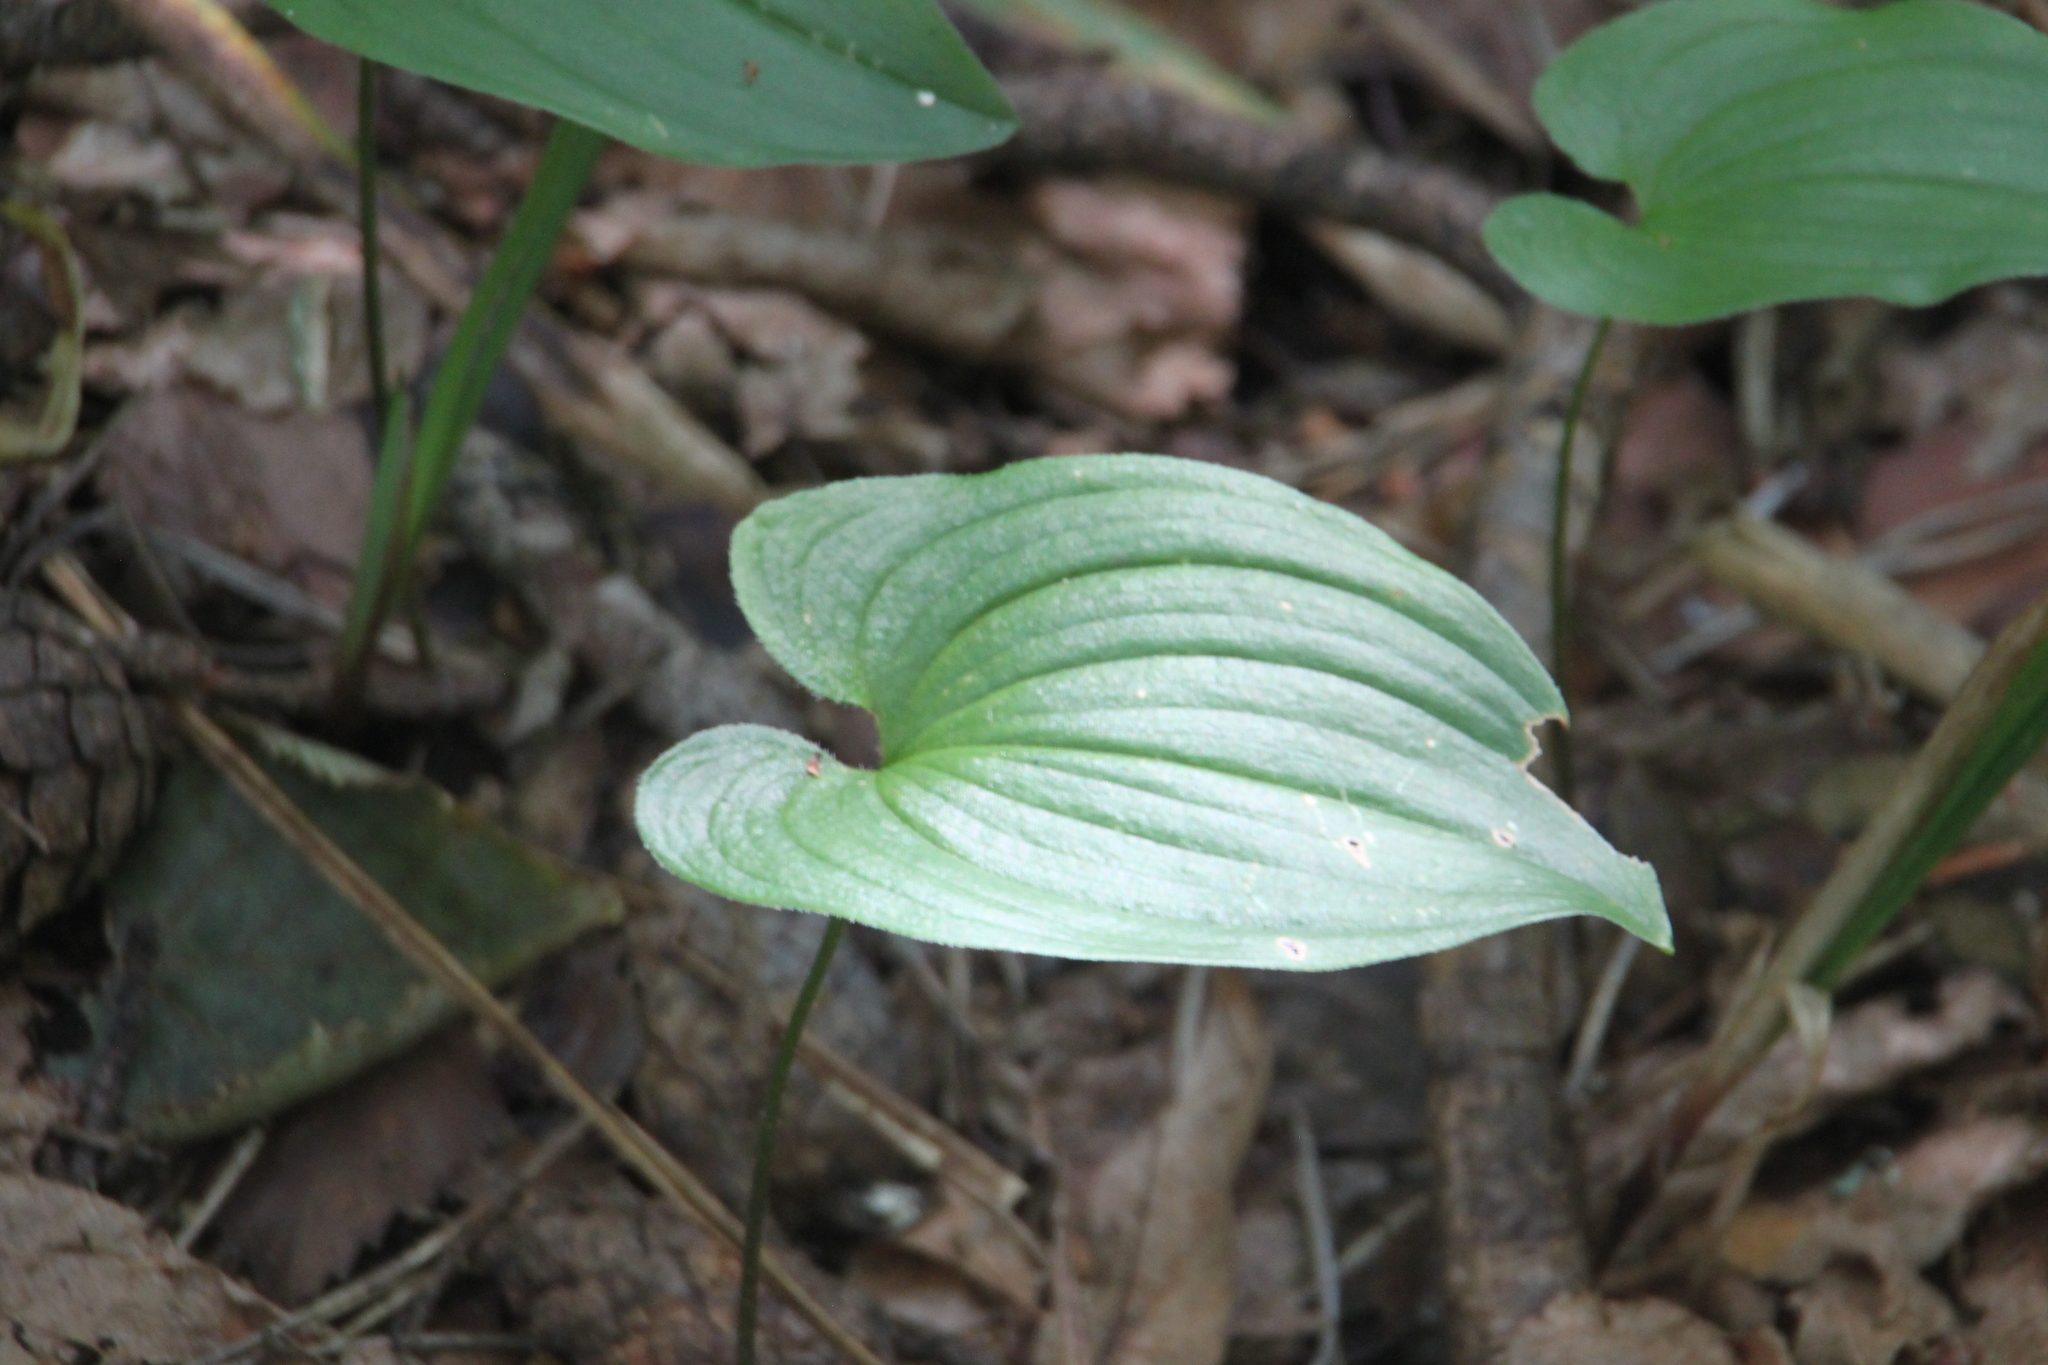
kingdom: Plantae
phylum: Tracheophyta
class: Liliopsida
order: Asparagales
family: Asparagaceae
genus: Maianthemum
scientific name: Maianthemum bifolium
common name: May lily
